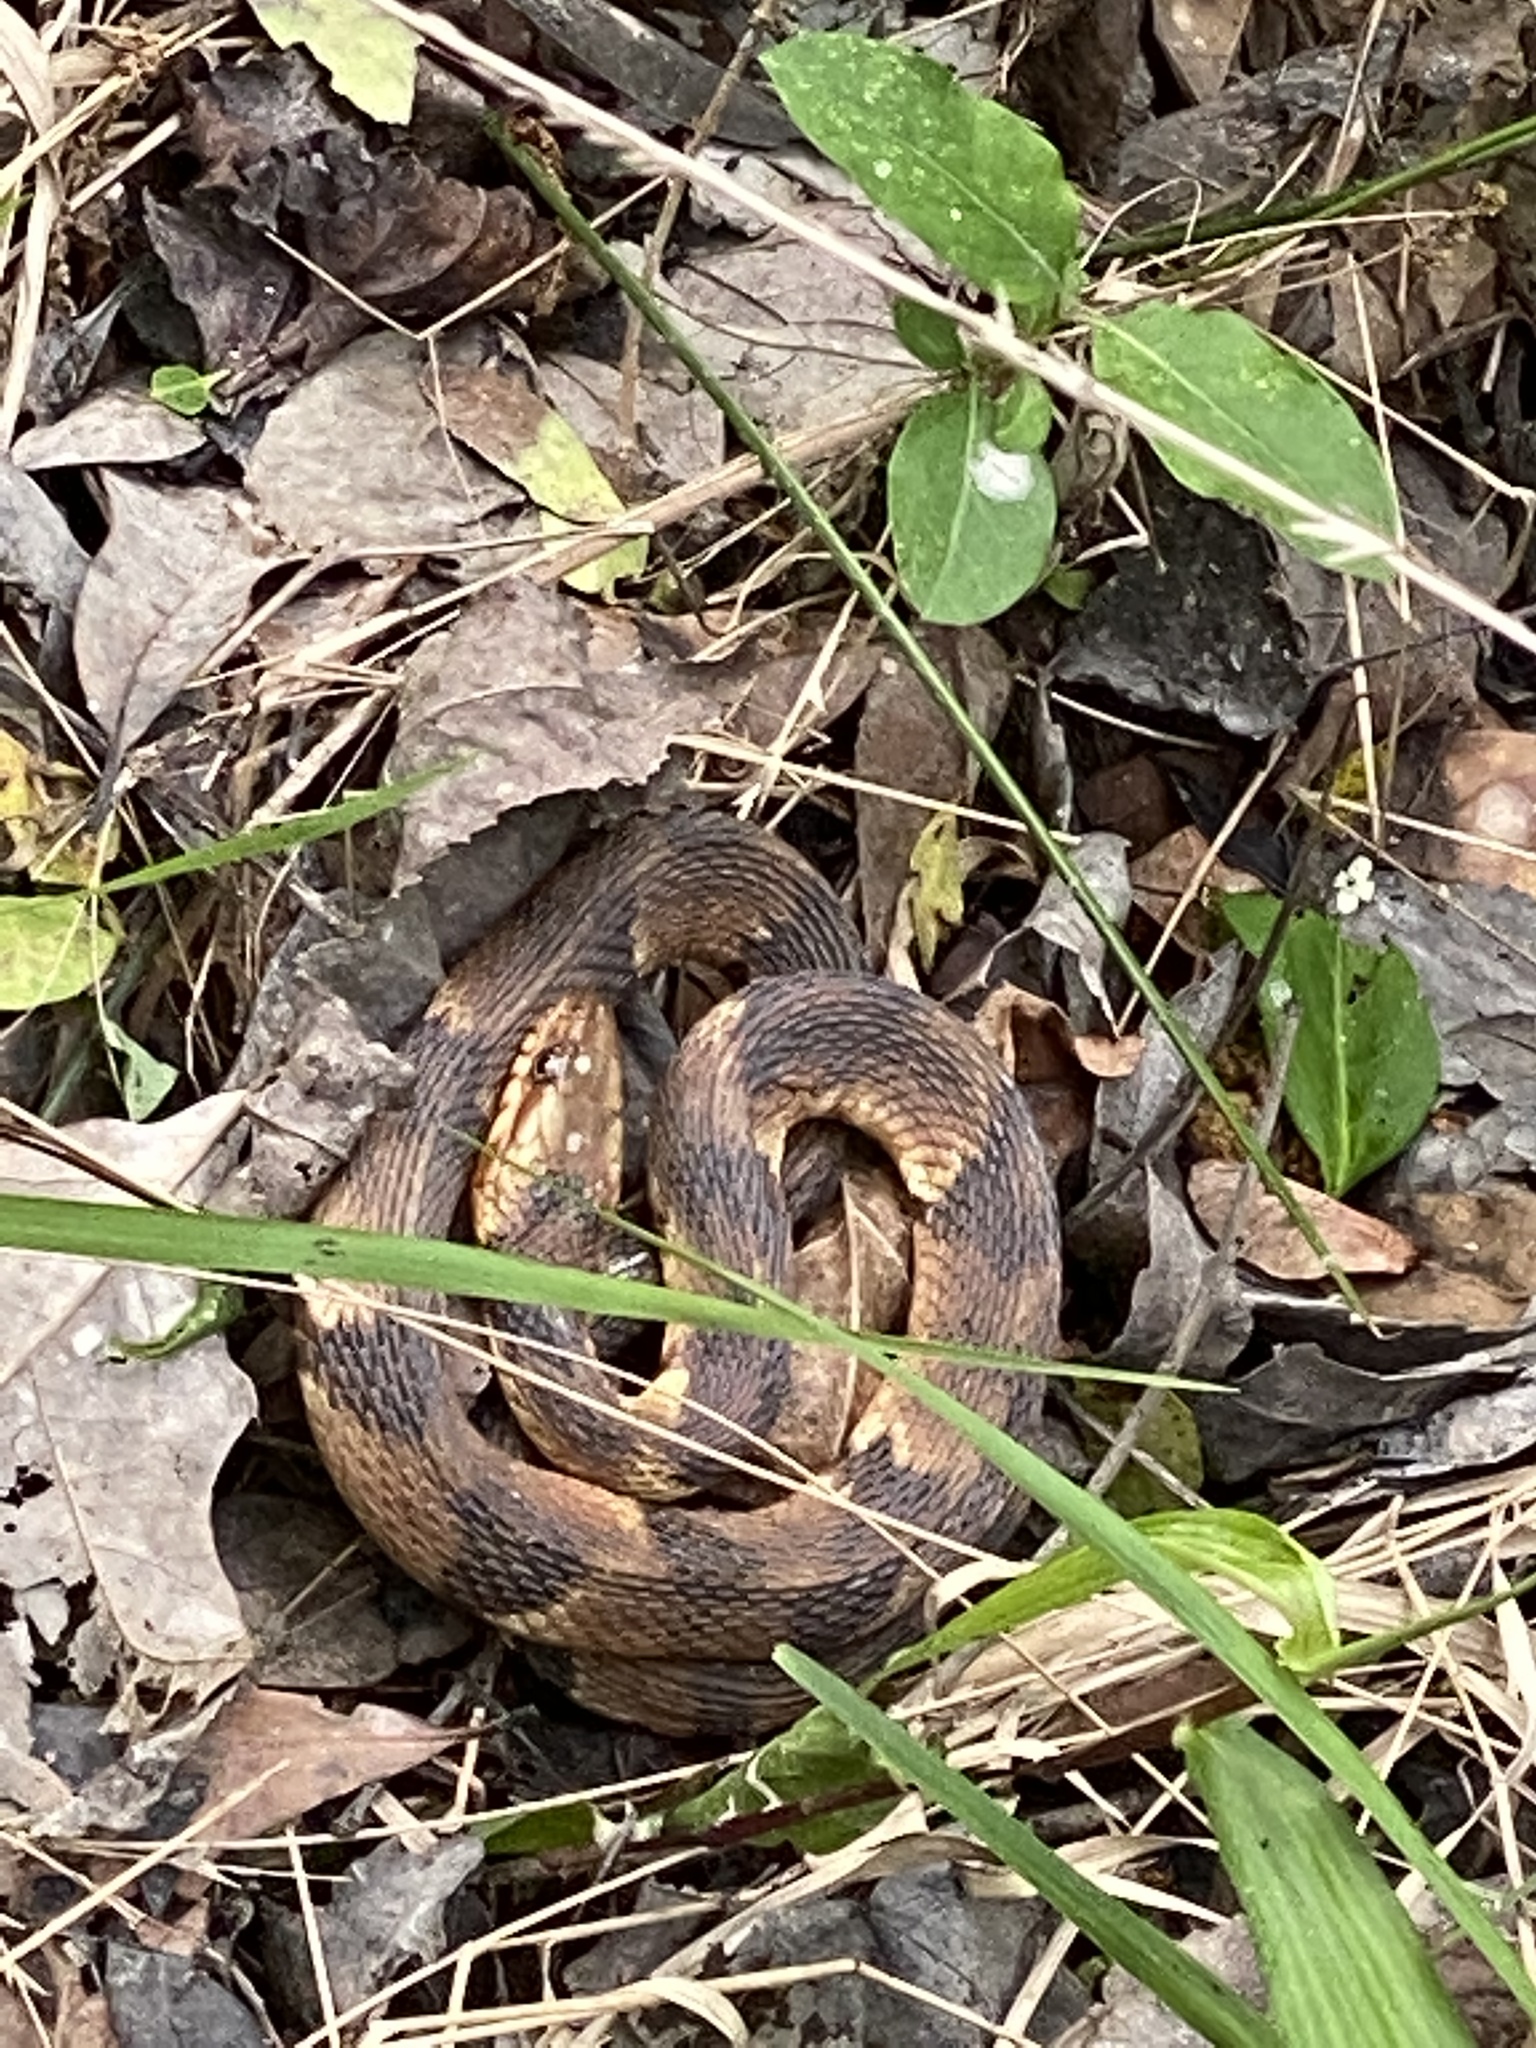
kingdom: Animalia
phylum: Chordata
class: Squamata
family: Colubridae
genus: Nerodia
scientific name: Nerodia fasciata
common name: Southern water snake
